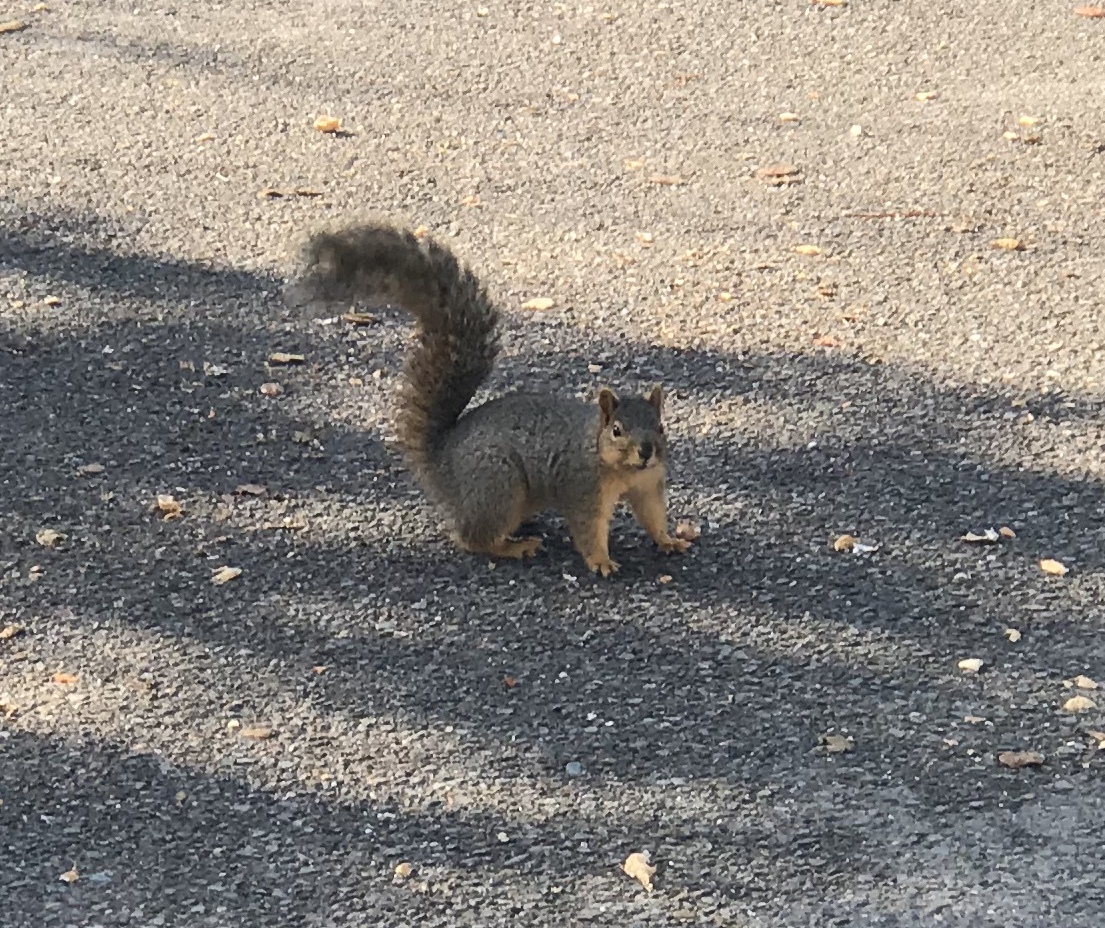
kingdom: Animalia
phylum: Chordata
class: Mammalia
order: Rodentia
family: Sciuridae
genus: Sciurus
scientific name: Sciurus niger
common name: Fox squirrel
